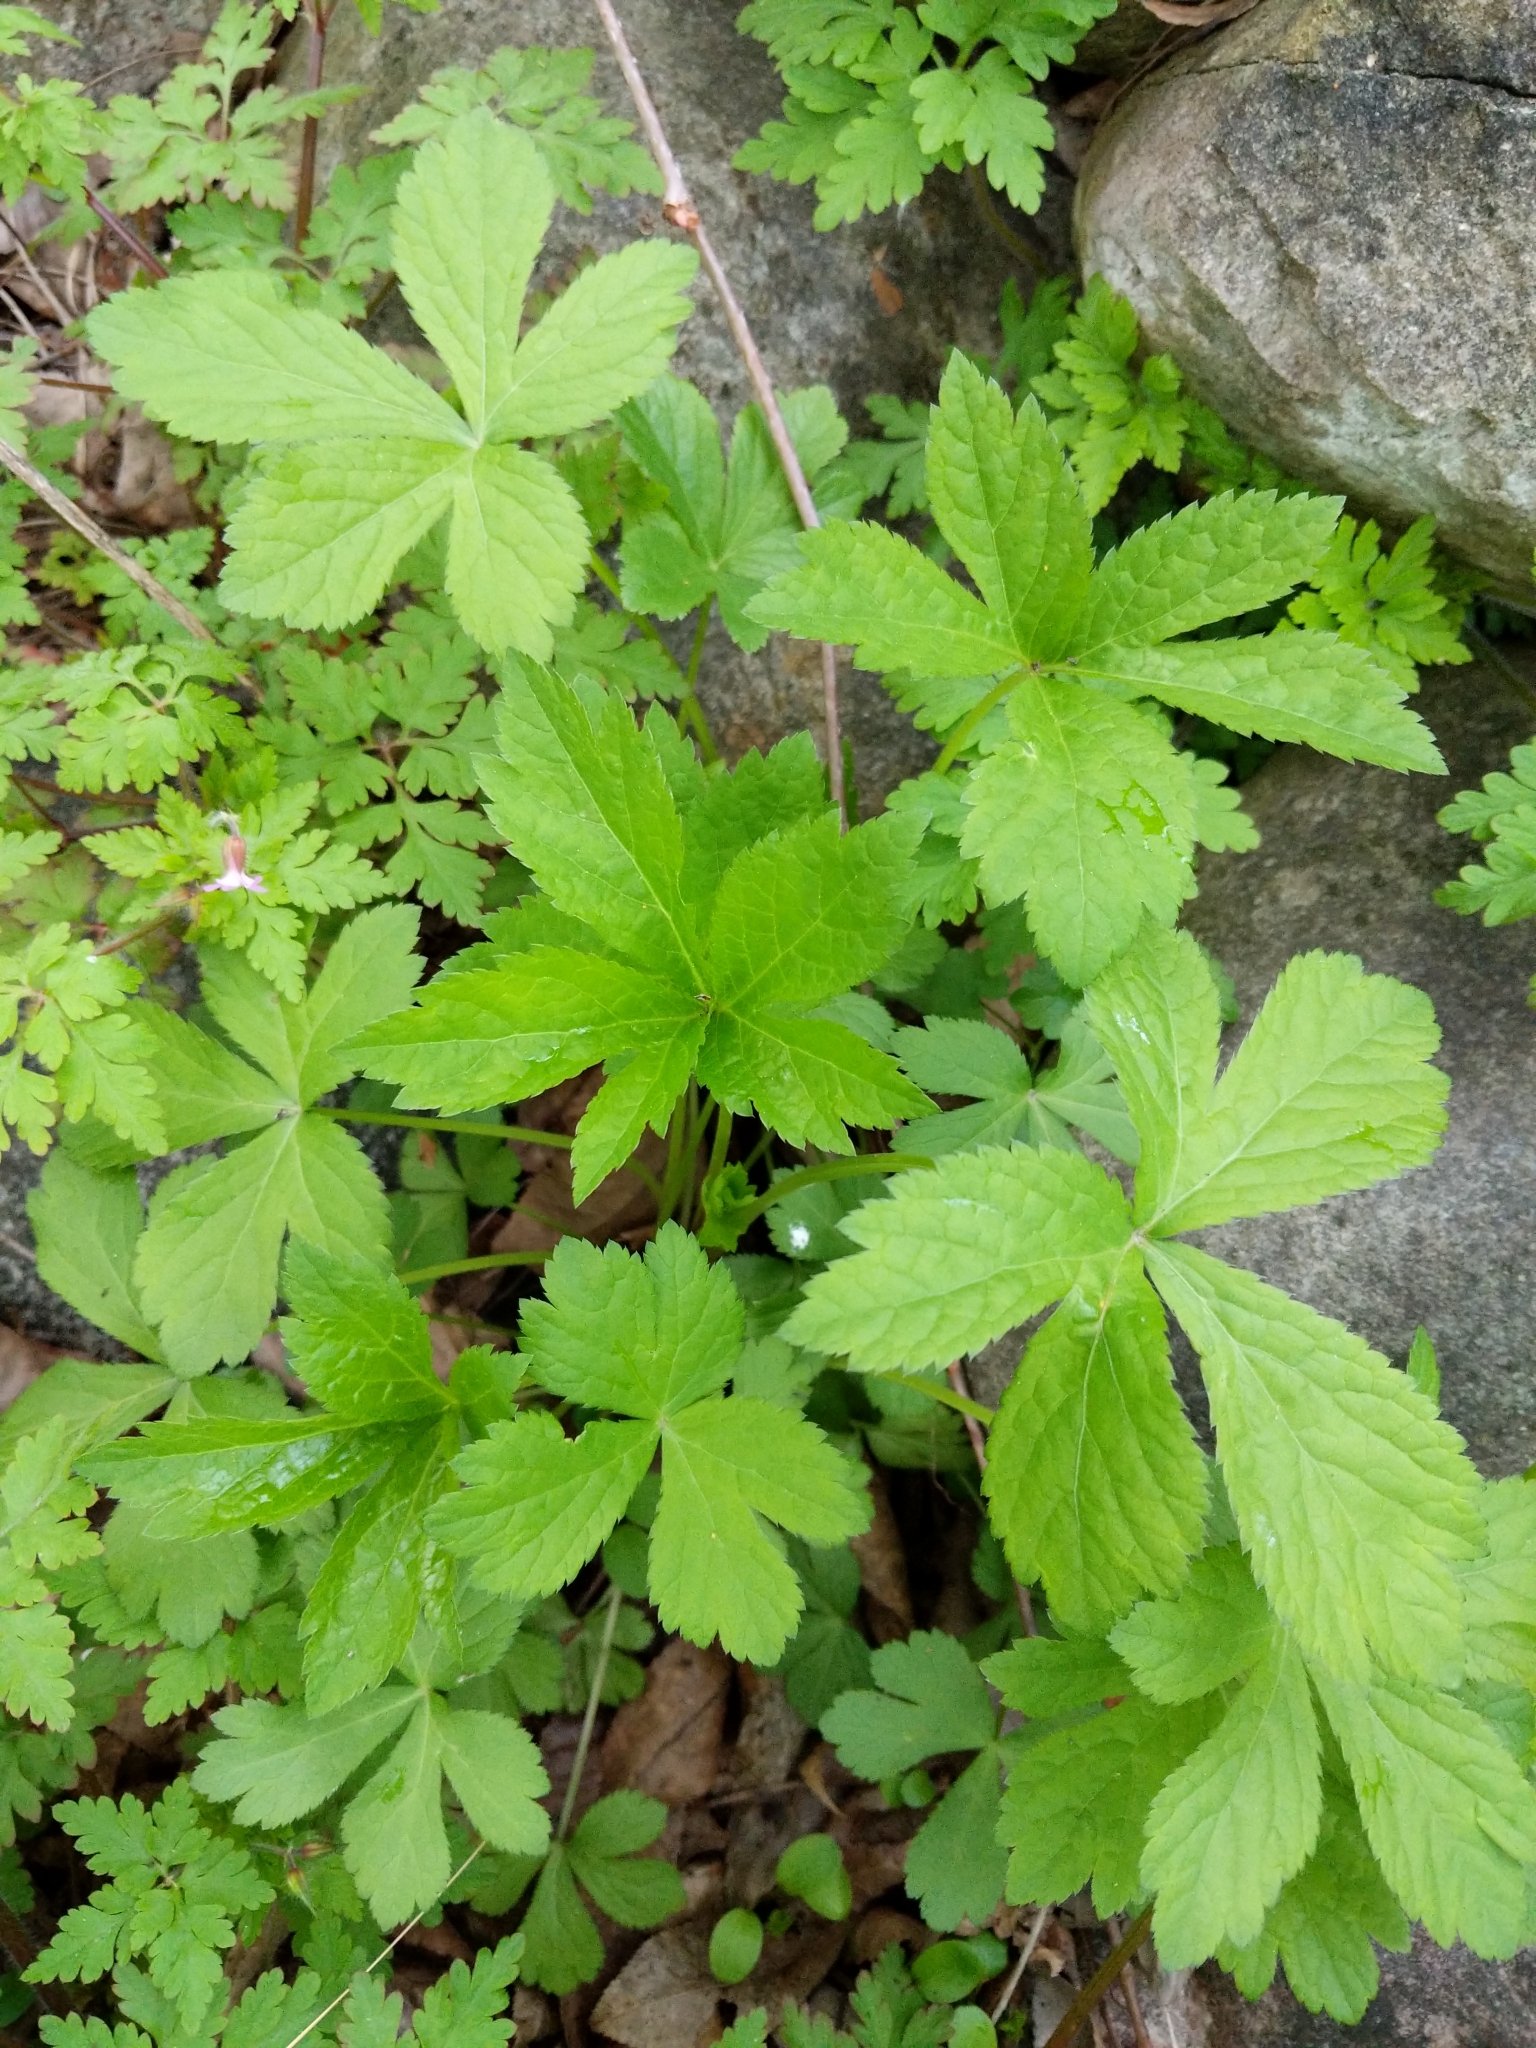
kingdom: Plantae
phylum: Tracheophyta
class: Magnoliopsida
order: Apiales
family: Apiaceae
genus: Sanicula
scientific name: Sanicula canadensis
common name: Canada sanicle
